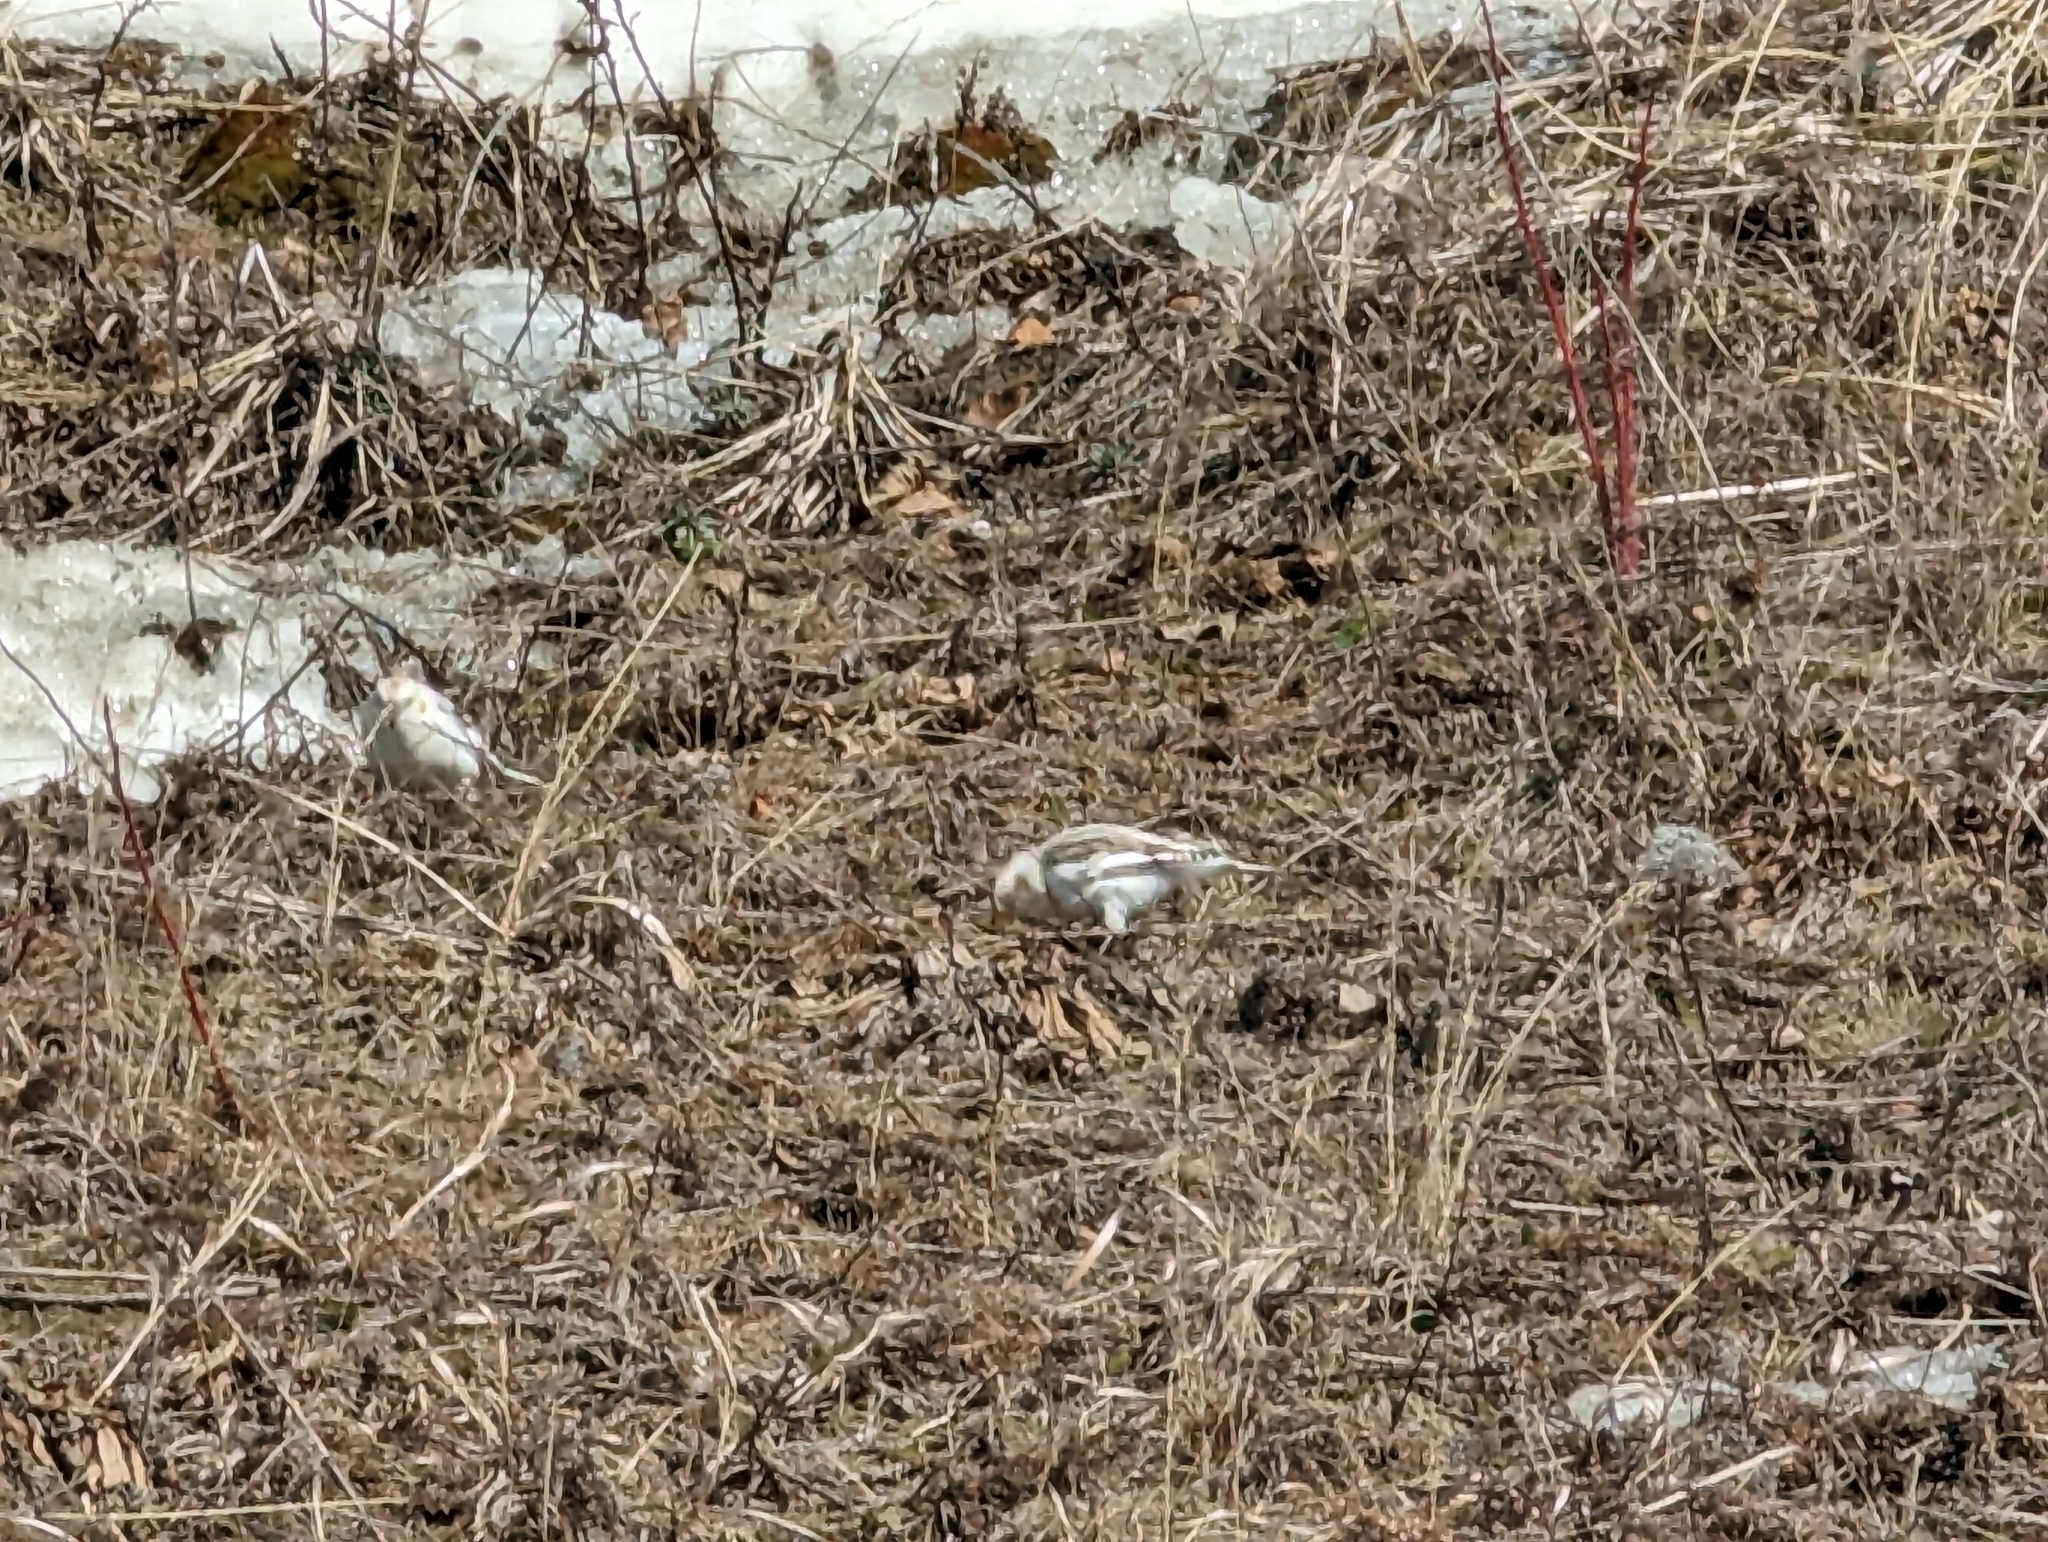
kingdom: Animalia
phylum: Chordata
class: Aves
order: Passeriformes
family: Calcariidae
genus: Plectrophenax
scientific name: Plectrophenax nivalis
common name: Snow bunting
